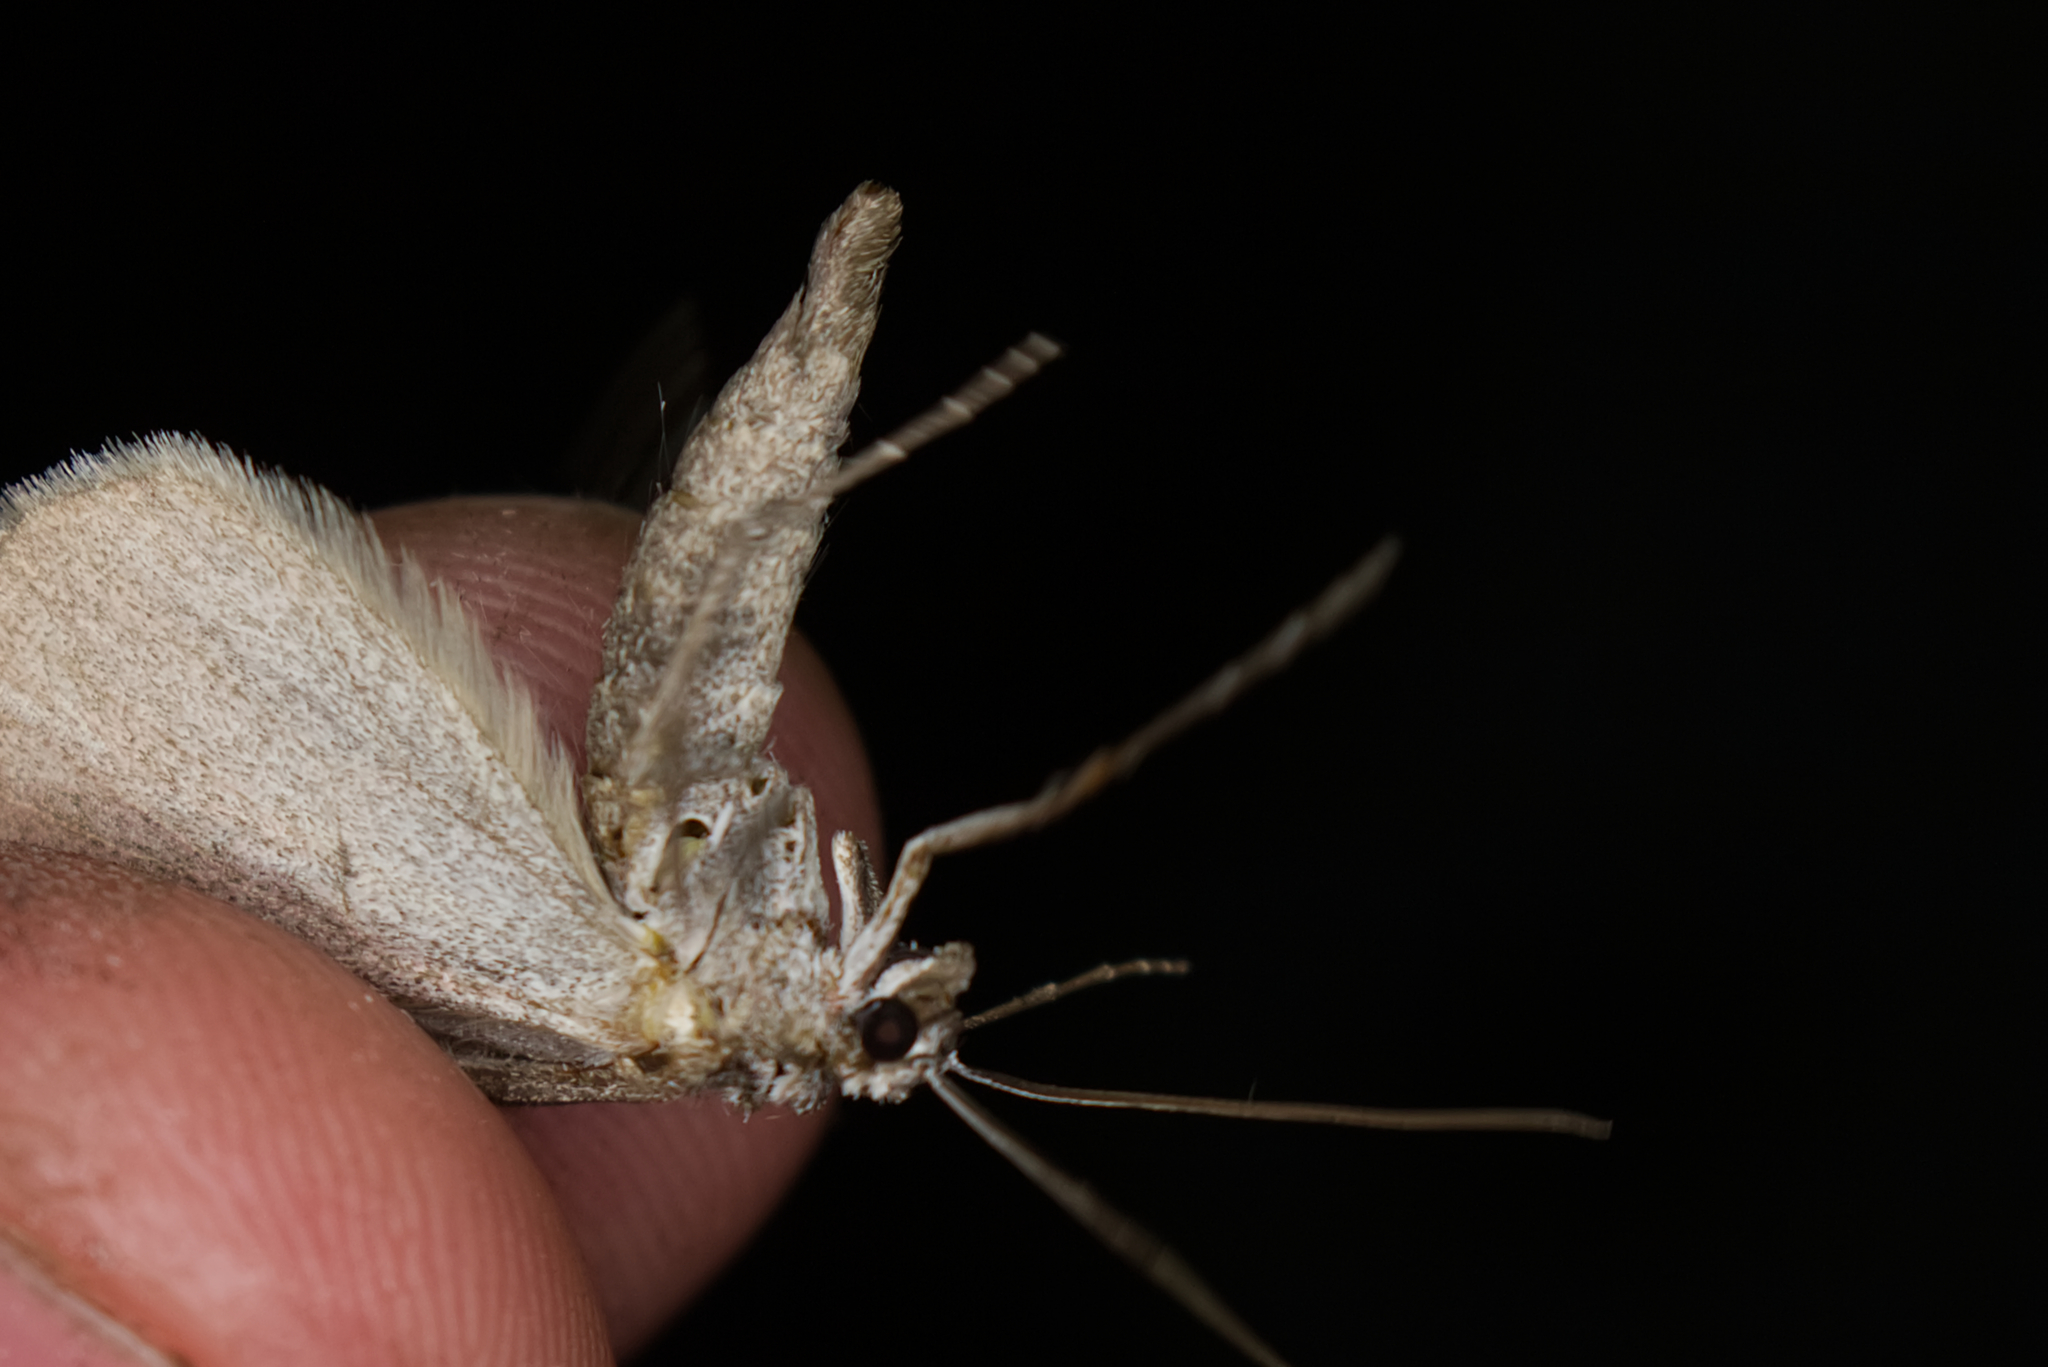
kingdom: Animalia
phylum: Arthropoda
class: Insecta
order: Lepidoptera
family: Geometridae
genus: Aplocera
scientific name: Aplocera plagiata
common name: Treble-bar
